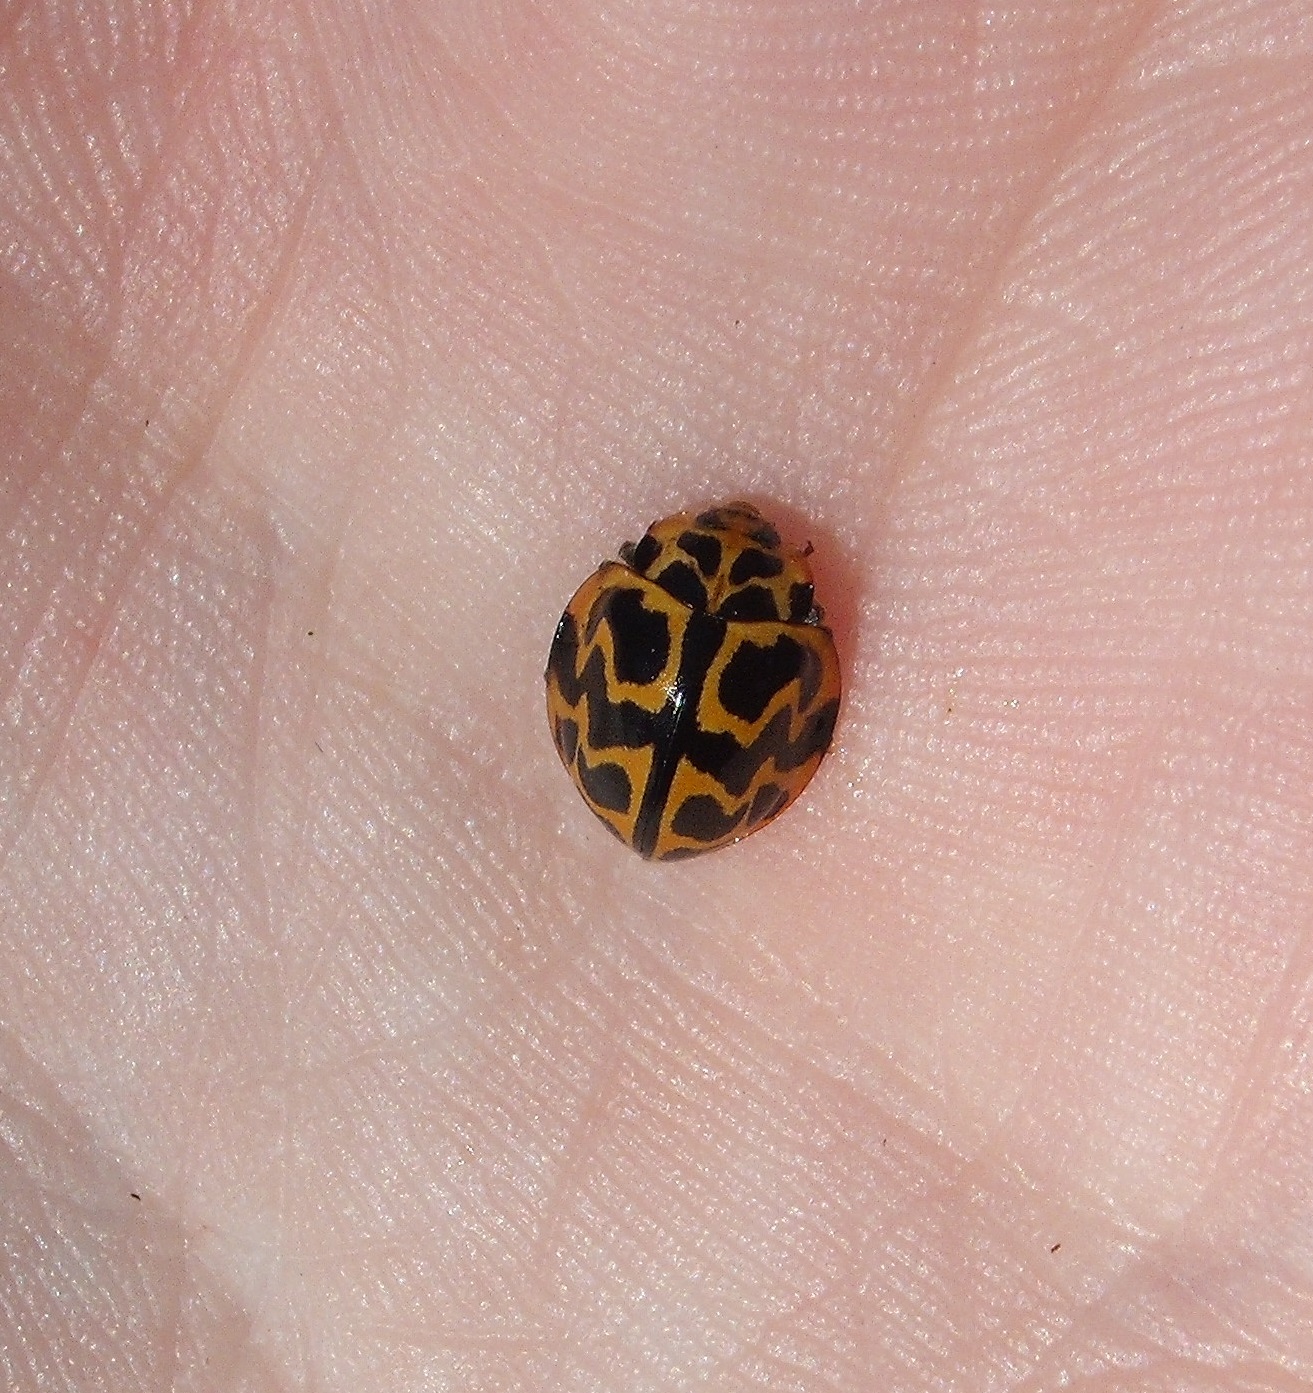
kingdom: Animalia
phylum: Arthropoda
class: Insecta
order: Coleoptera
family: Coccinellidae
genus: Cleobora
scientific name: Cleobora
